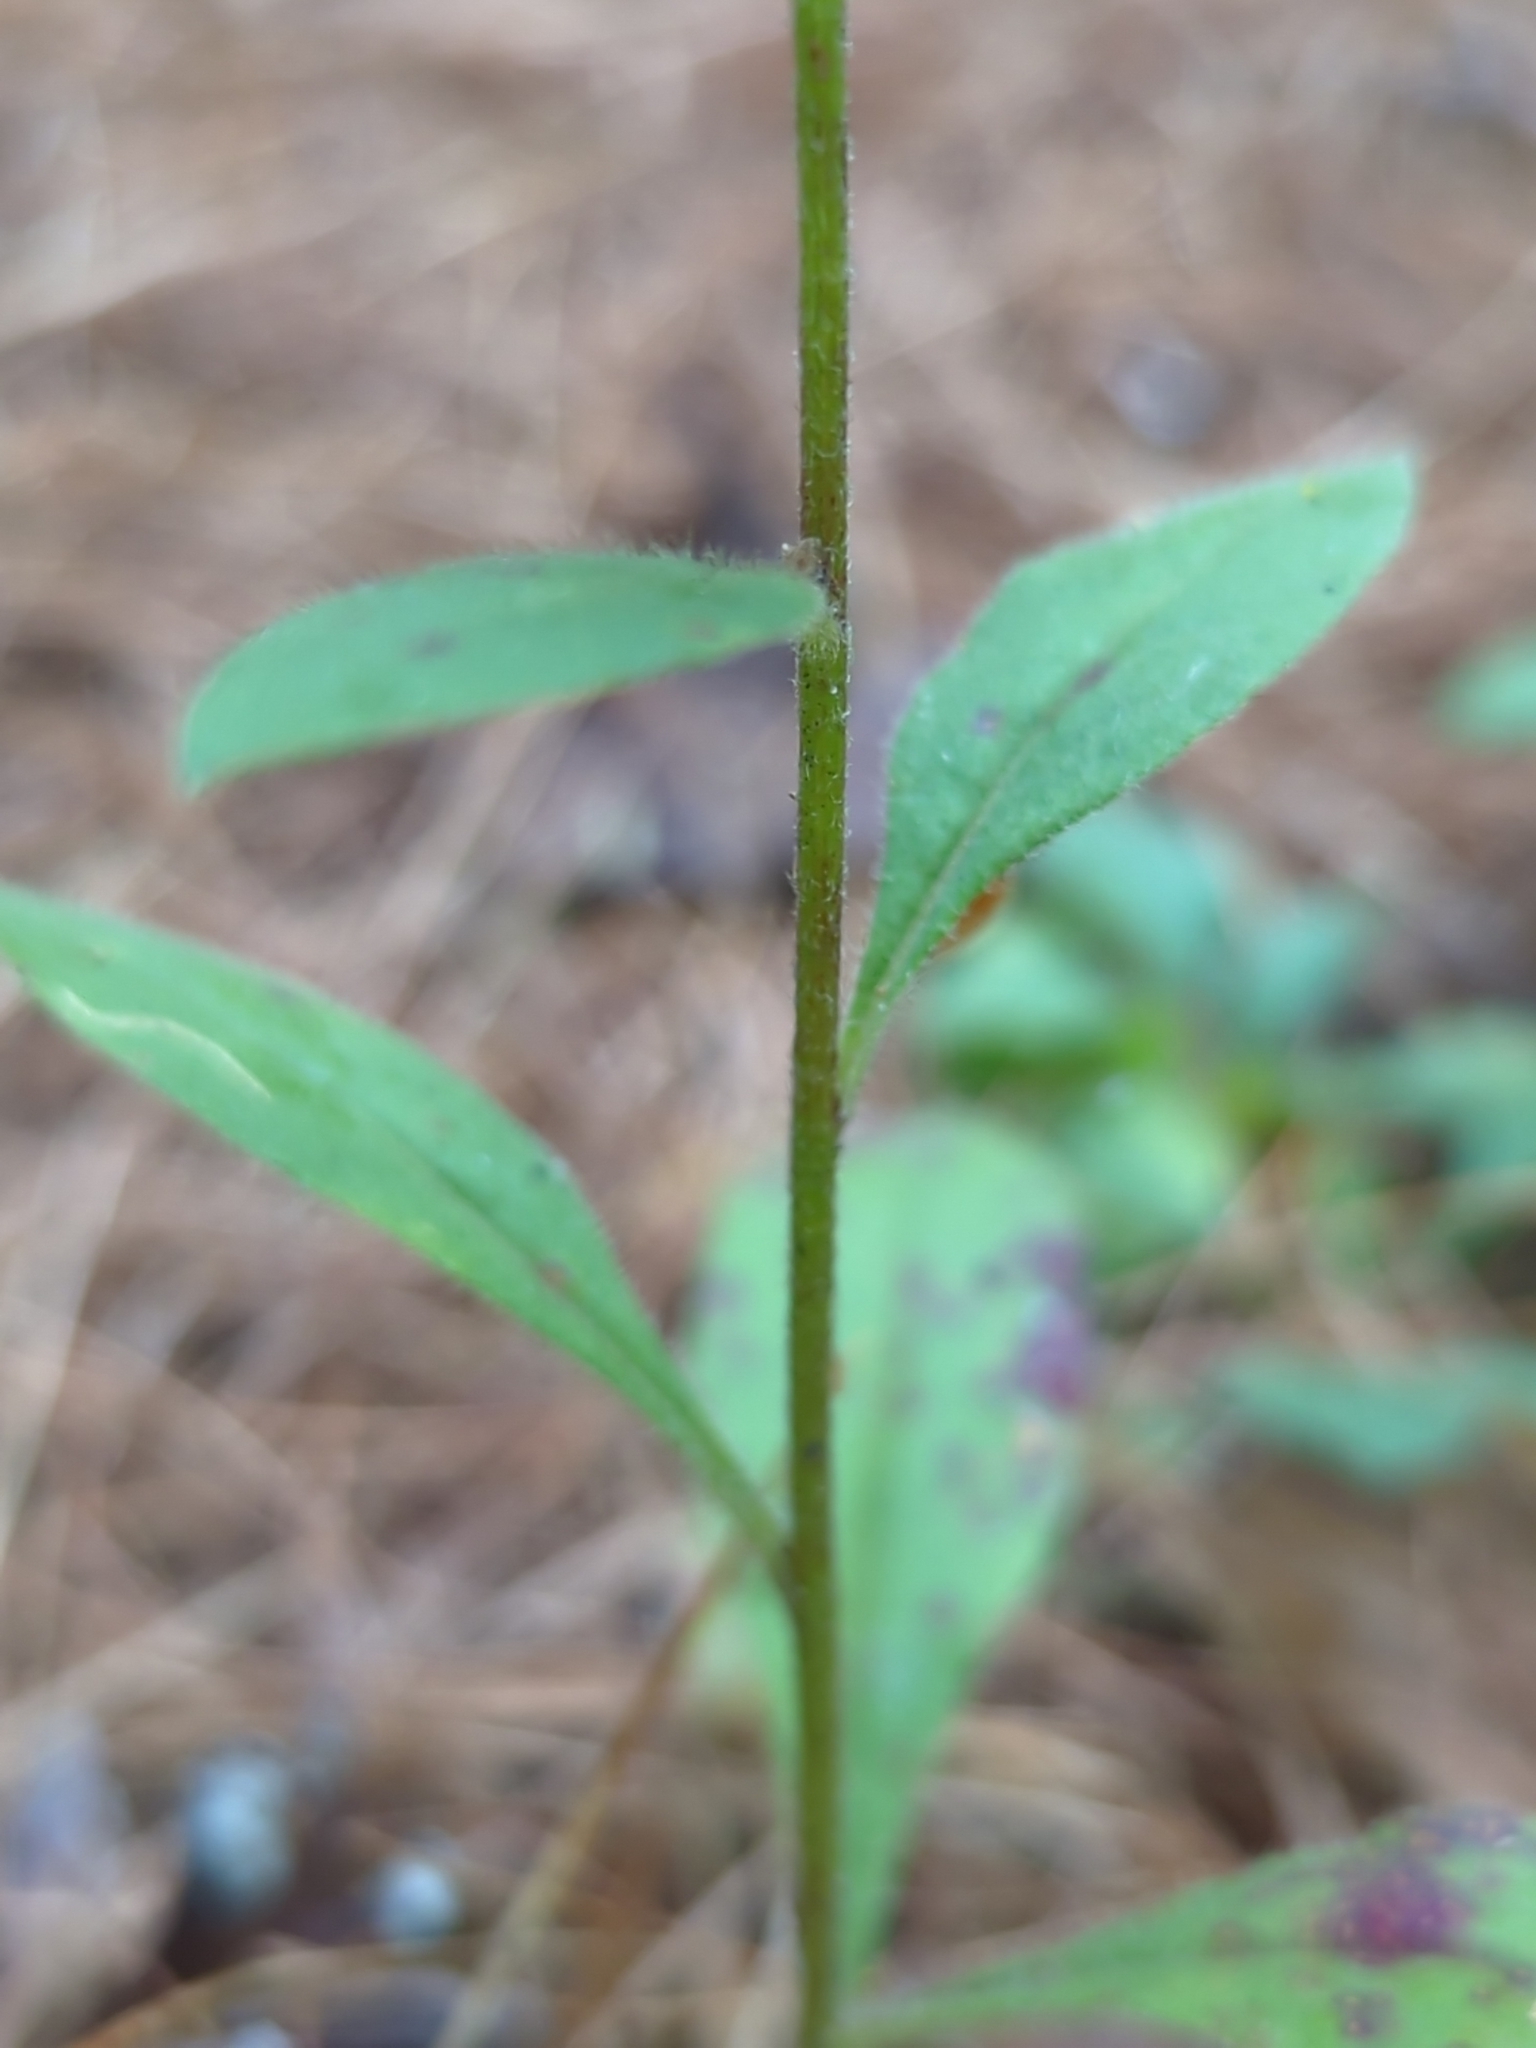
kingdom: Plantae
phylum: Tracheophyta
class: Magnoliopsida
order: Asterales
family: Asteraceae
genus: Solidago
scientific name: Solidago bicolor
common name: Silverrod
